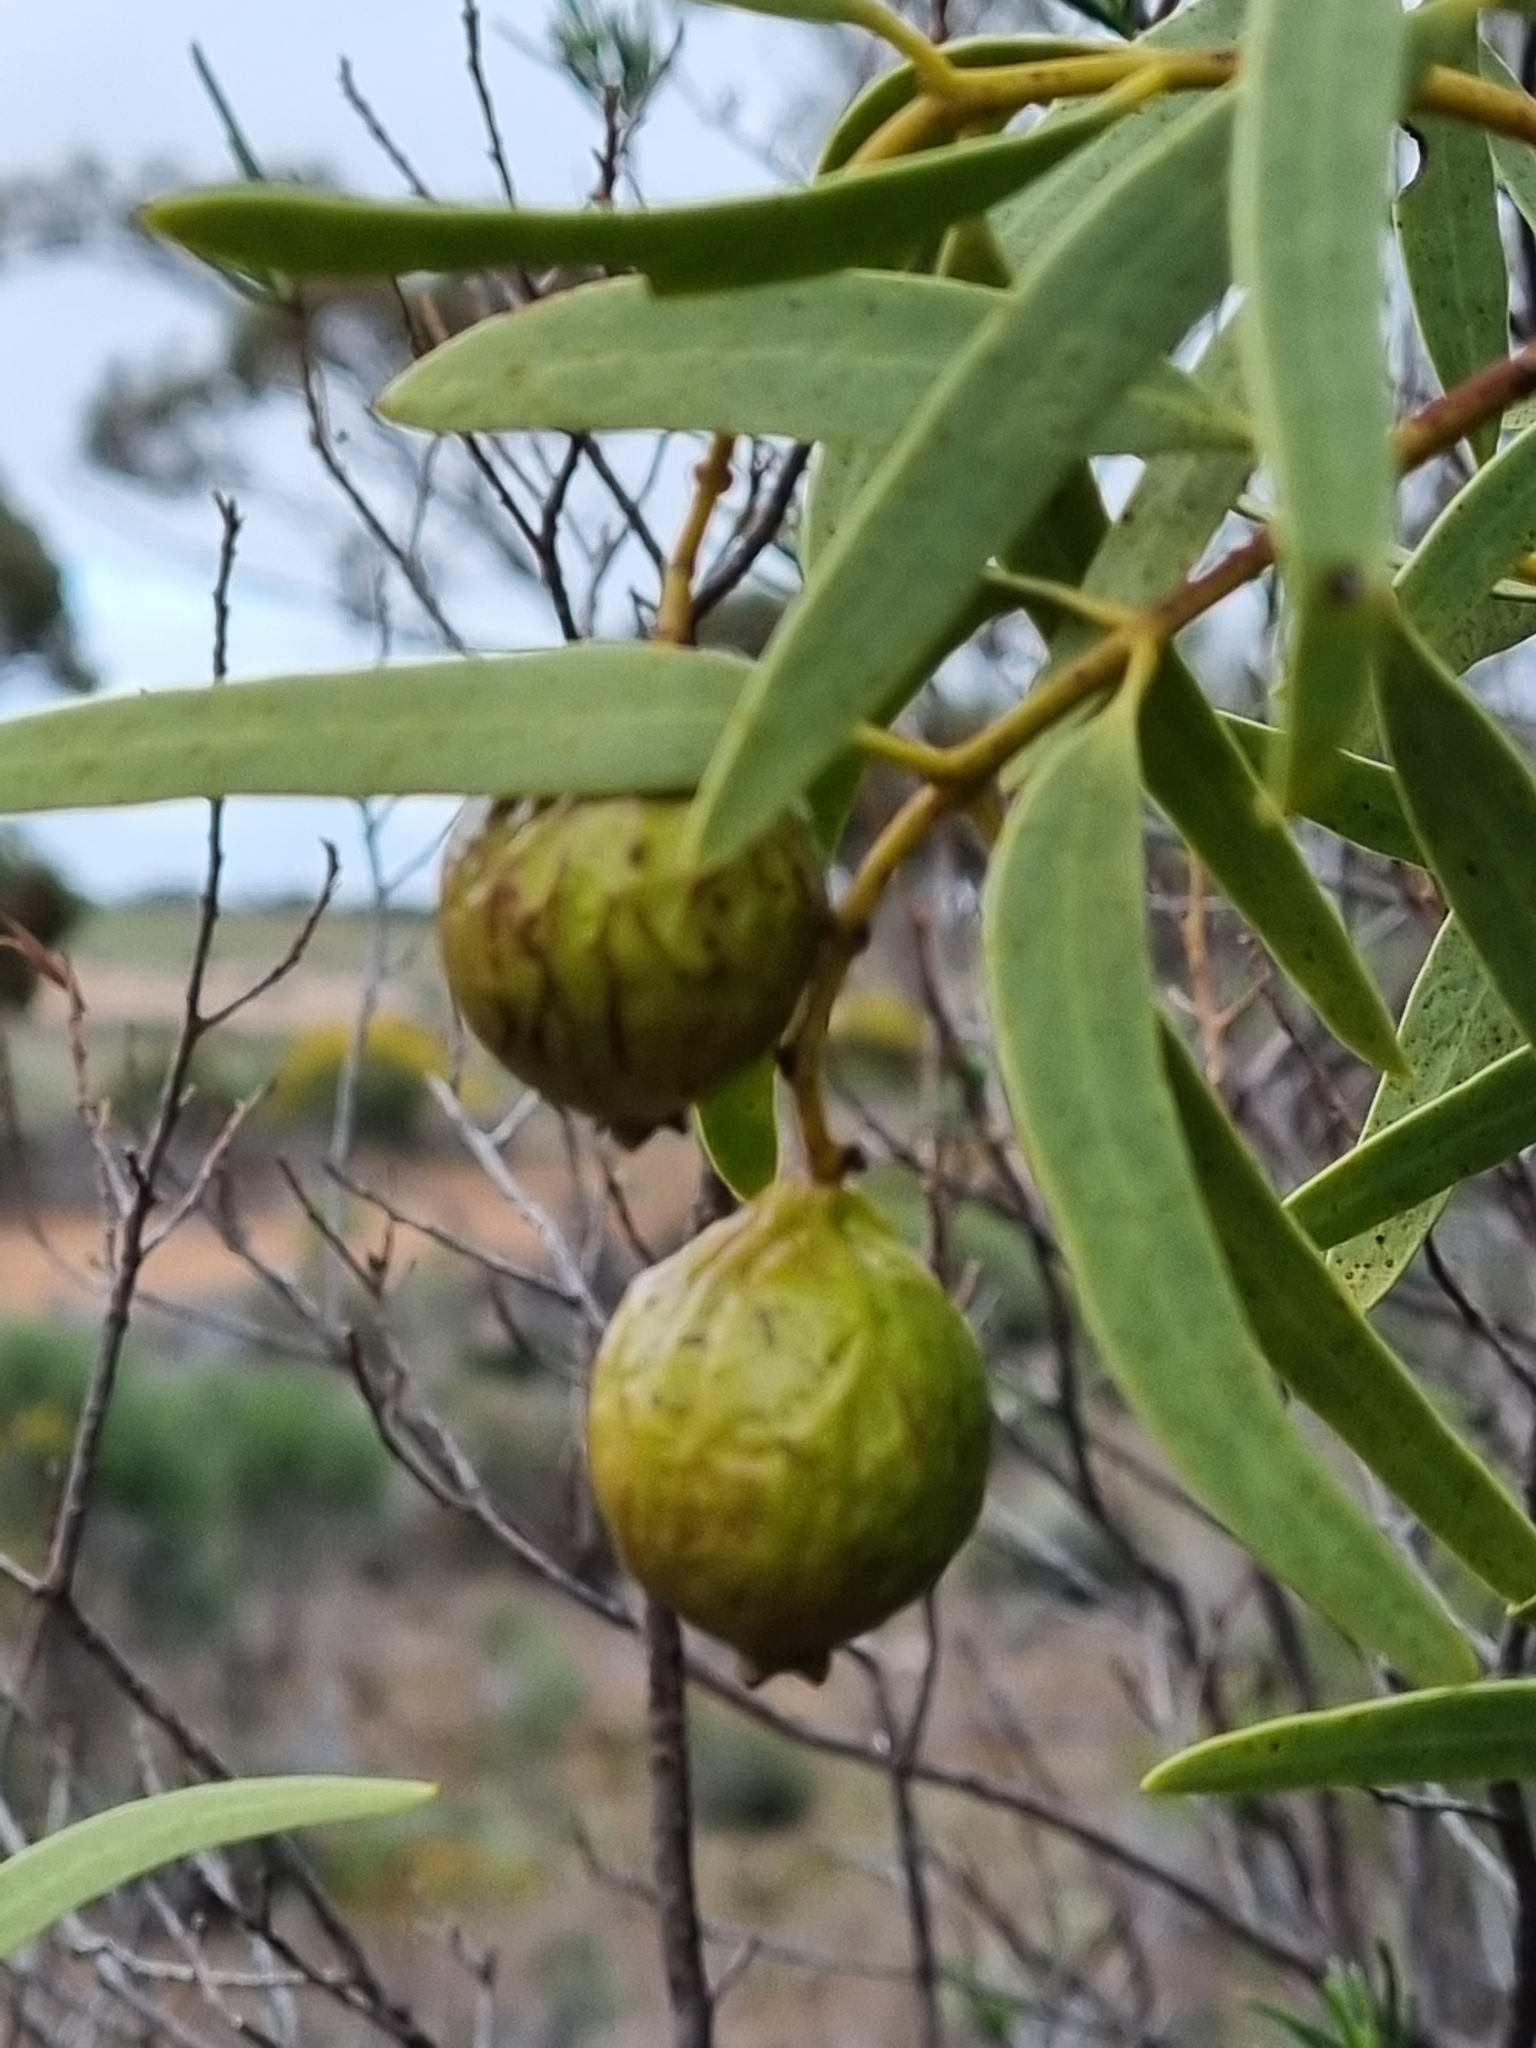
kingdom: Plantae
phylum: Tracheophyta
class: Magnoliopsida
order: Santalales
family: Santalaceae
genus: Santalum
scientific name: Santalum acuminatum
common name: Sweet quandong
